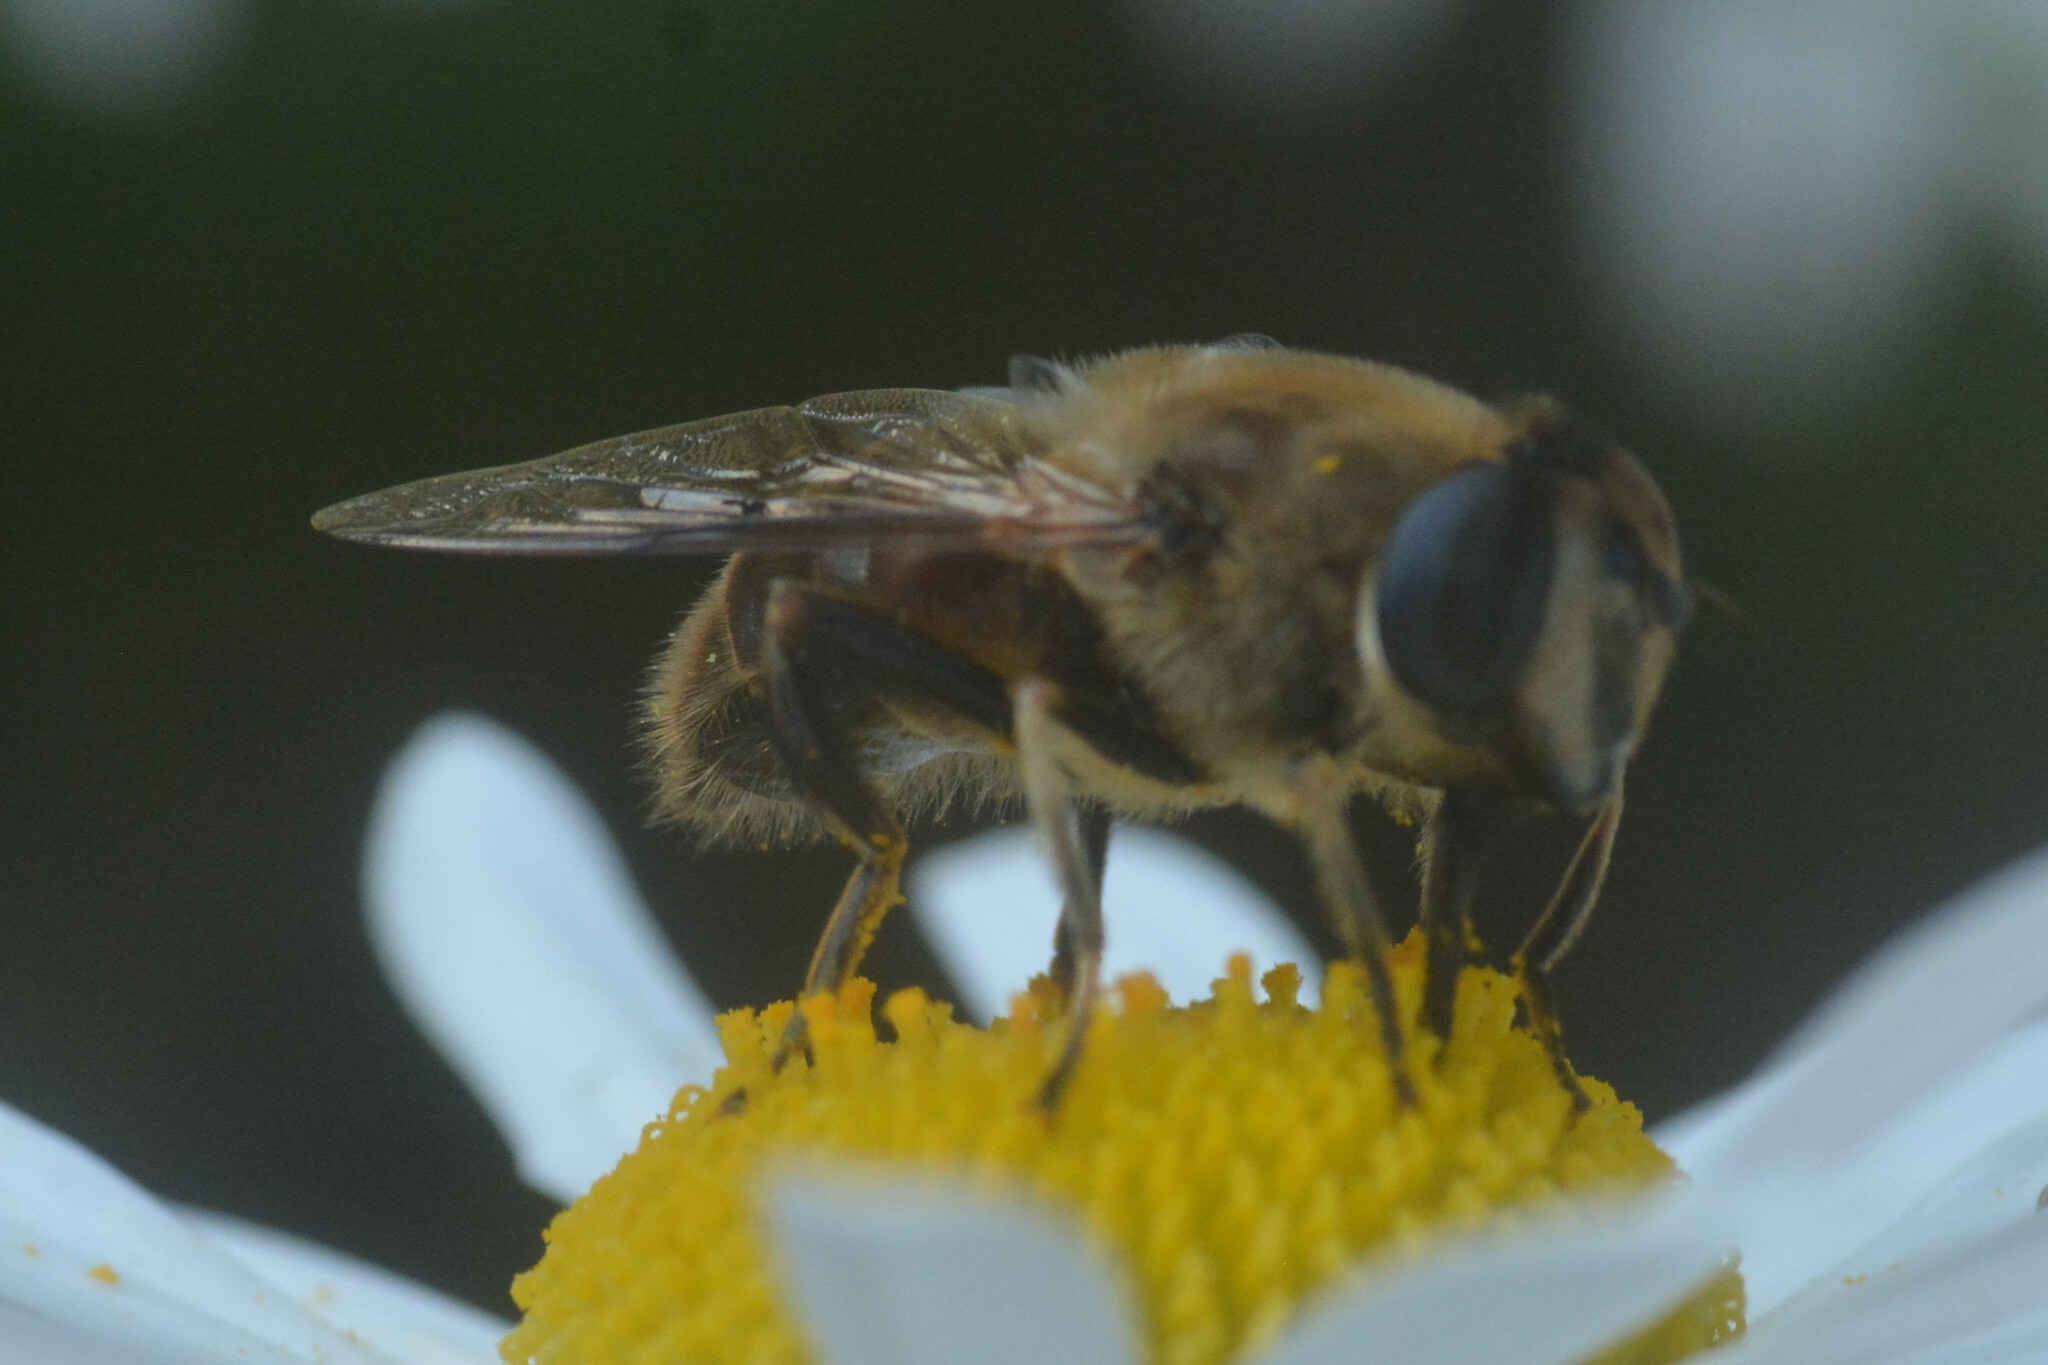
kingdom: Animalia
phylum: Arthropoda
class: Insecta
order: Diptera
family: Syrphidae
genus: Eristalis
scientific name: Eristalis tenax
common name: Drone fly
